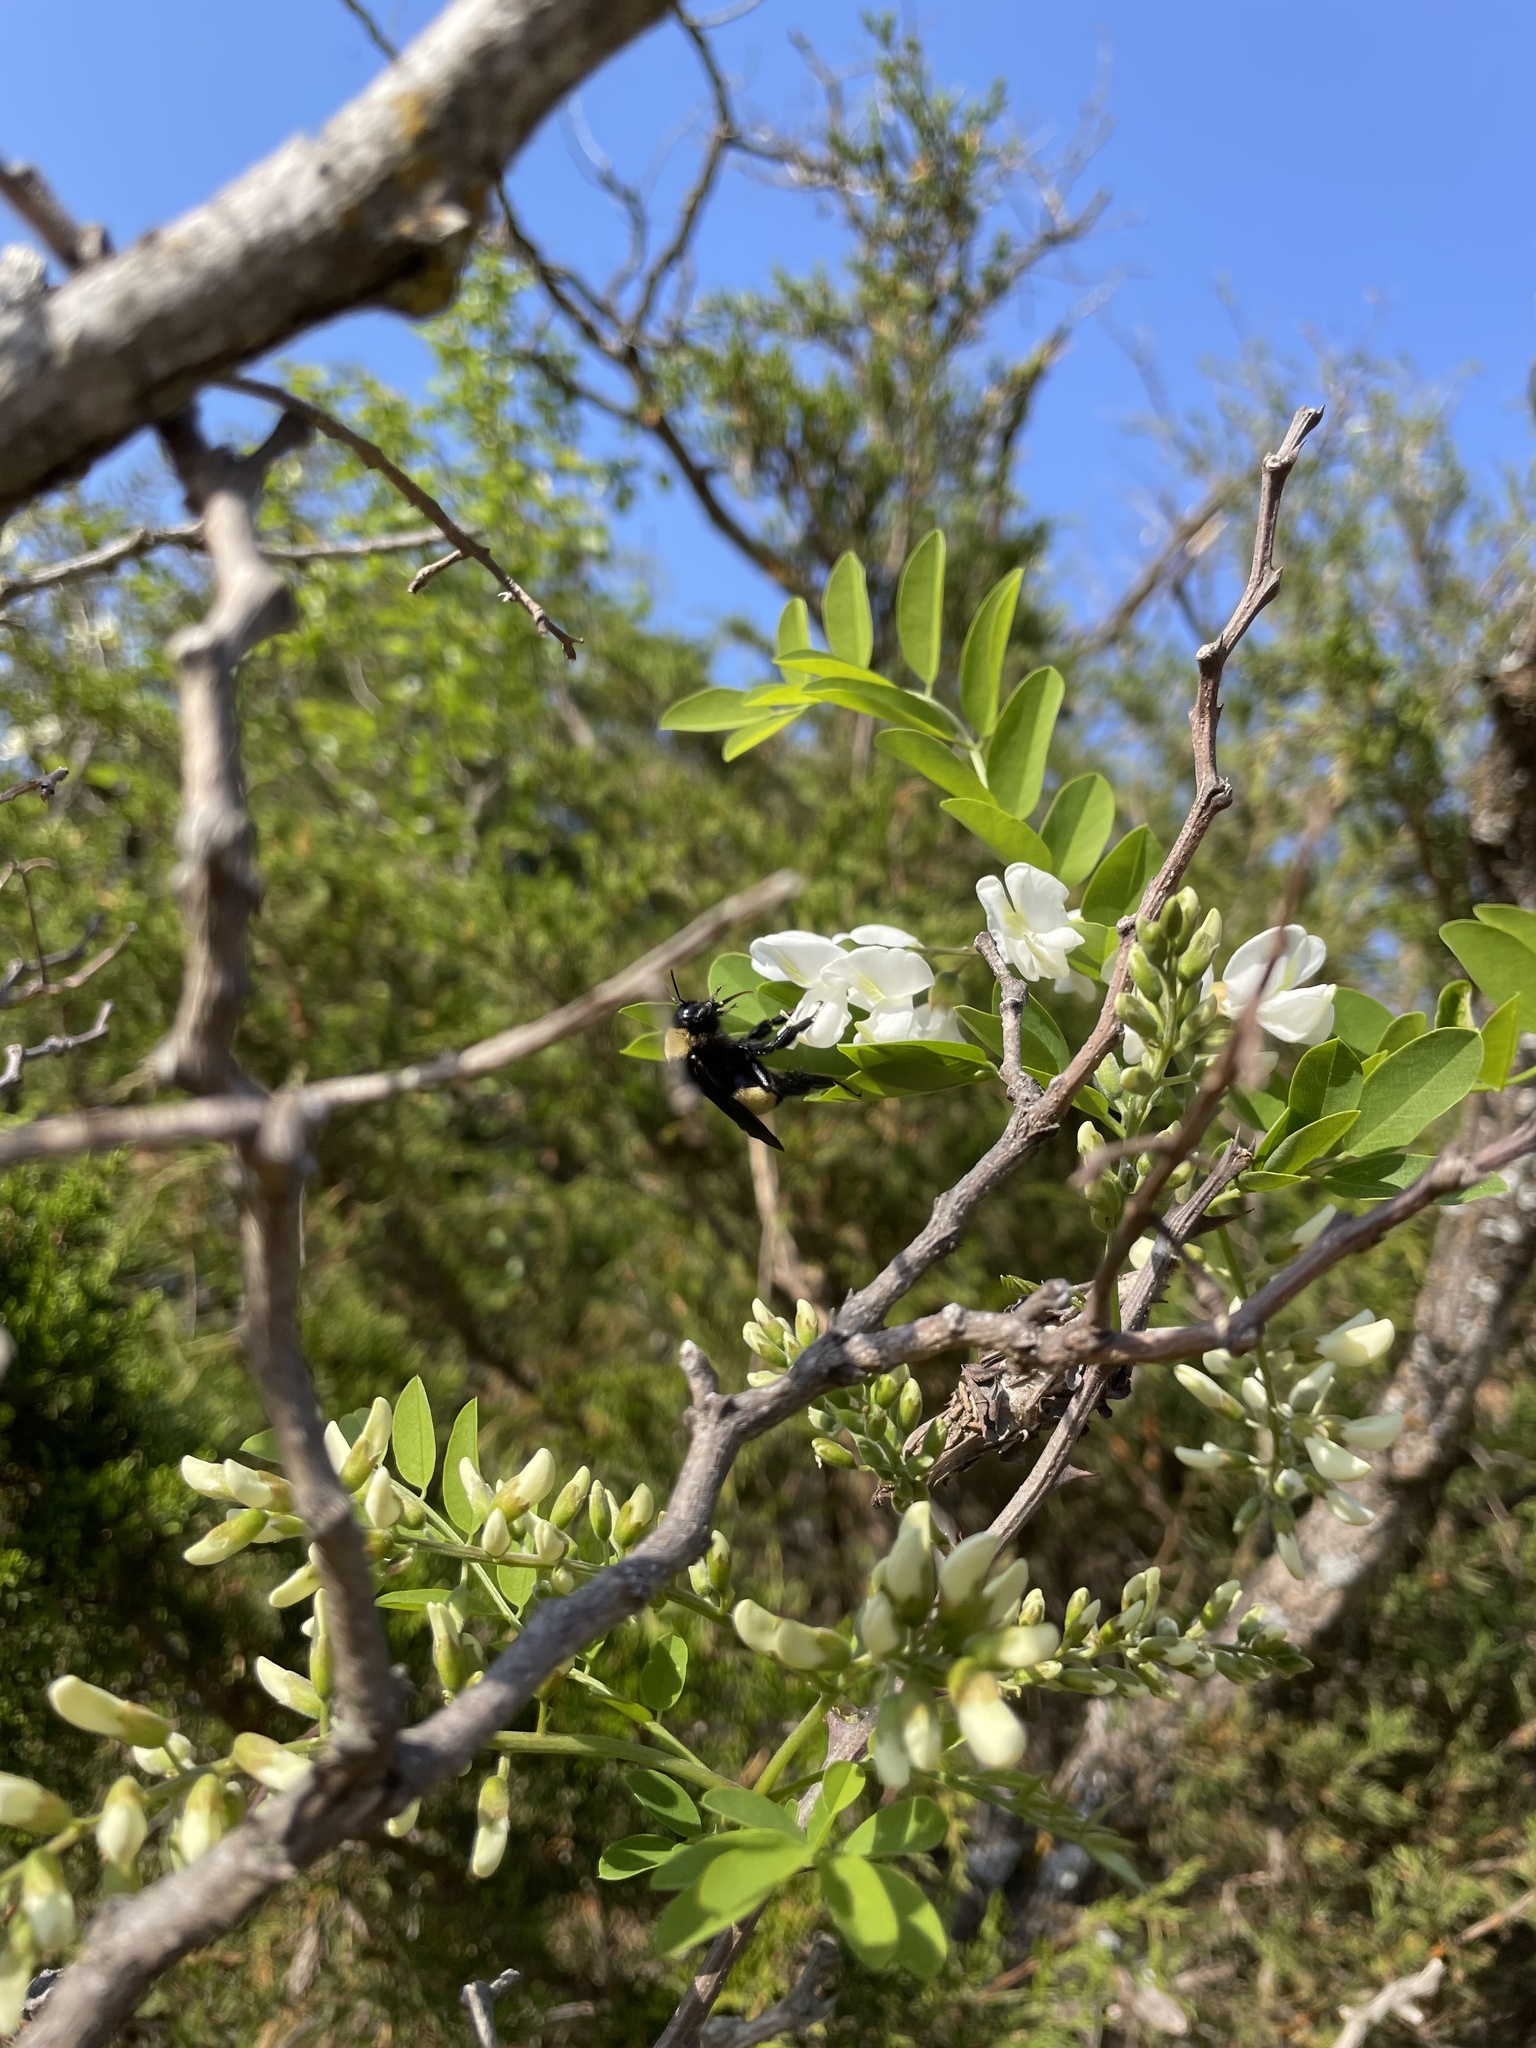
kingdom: Animalia
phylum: Arthropoda
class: Insecta
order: Hymenoptera
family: Apidae
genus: Bombus
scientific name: Bombus pensylvanicus
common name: Bumble bee
